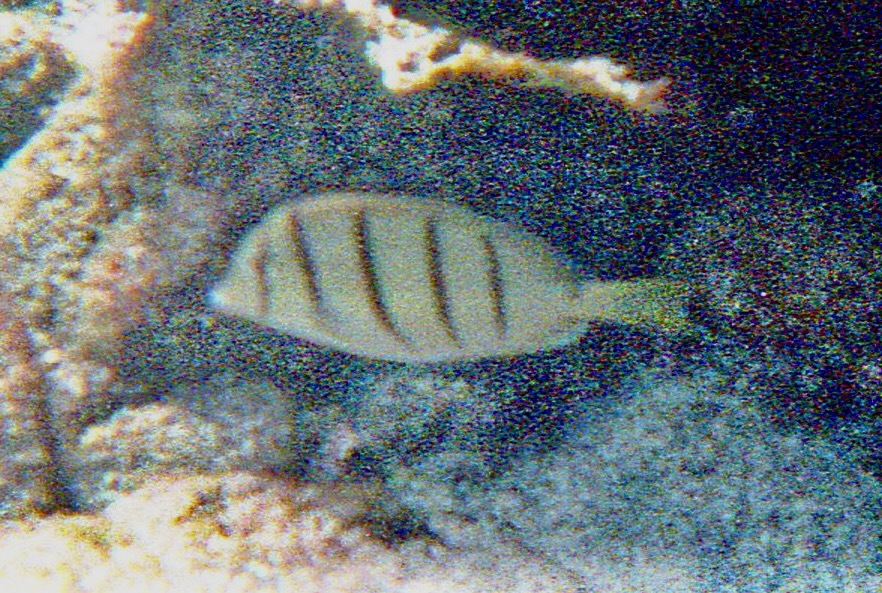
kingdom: Animalia
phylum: Chordata
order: Perciformes
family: Acanthuridae
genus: Acanthurus
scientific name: Acanthurus triostegus
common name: Convict surgeonfish
